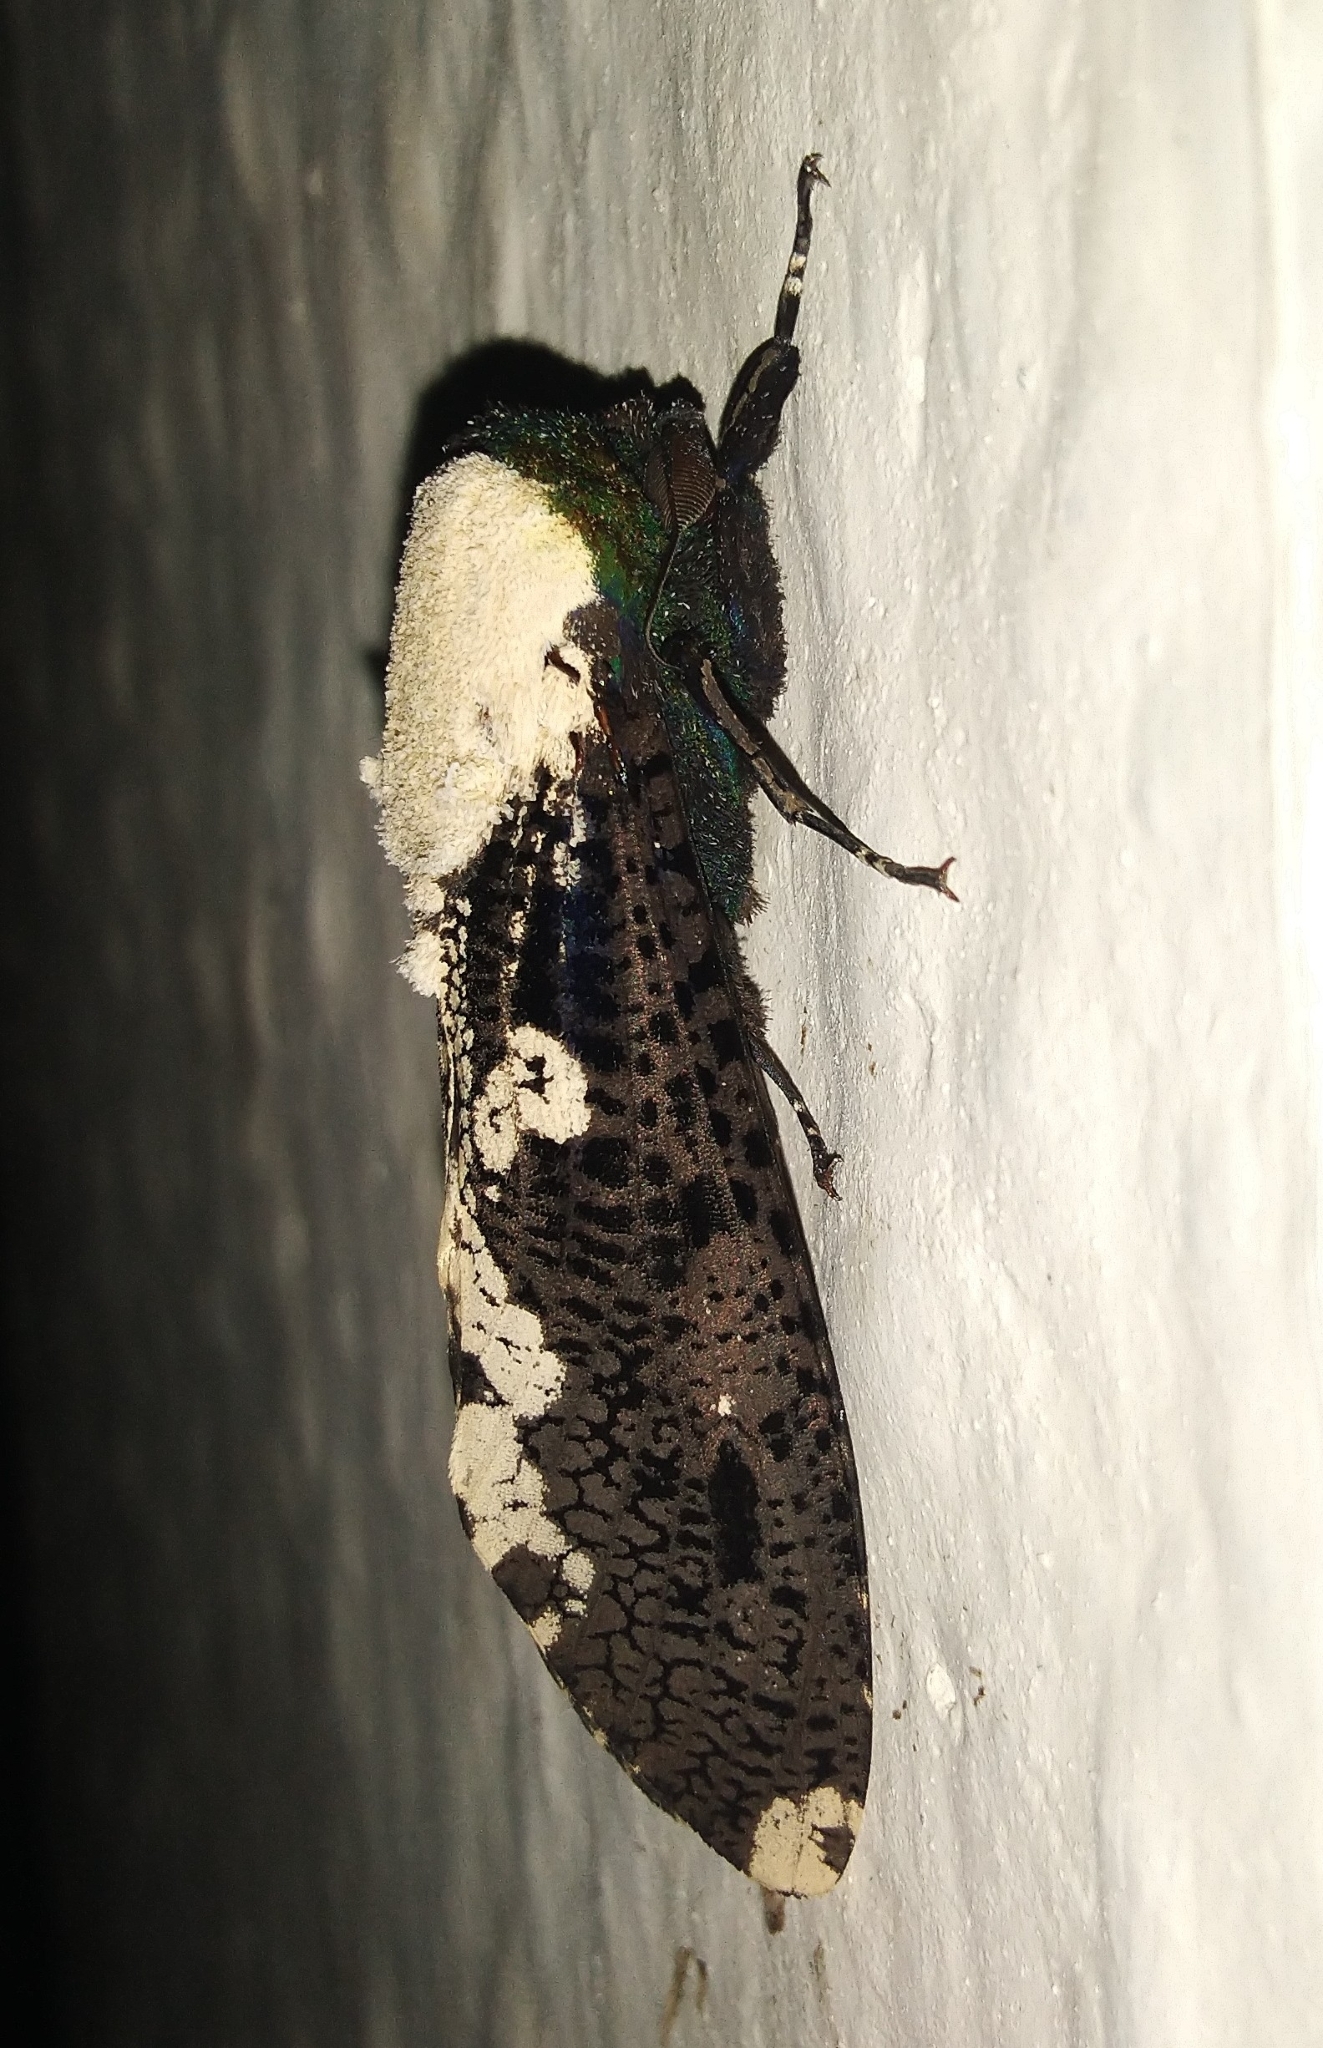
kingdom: Animalia
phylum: Arthropoda
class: Insecta
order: Lepidoptera
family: Cossidae
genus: Xyleutes
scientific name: Xyleutes persona
